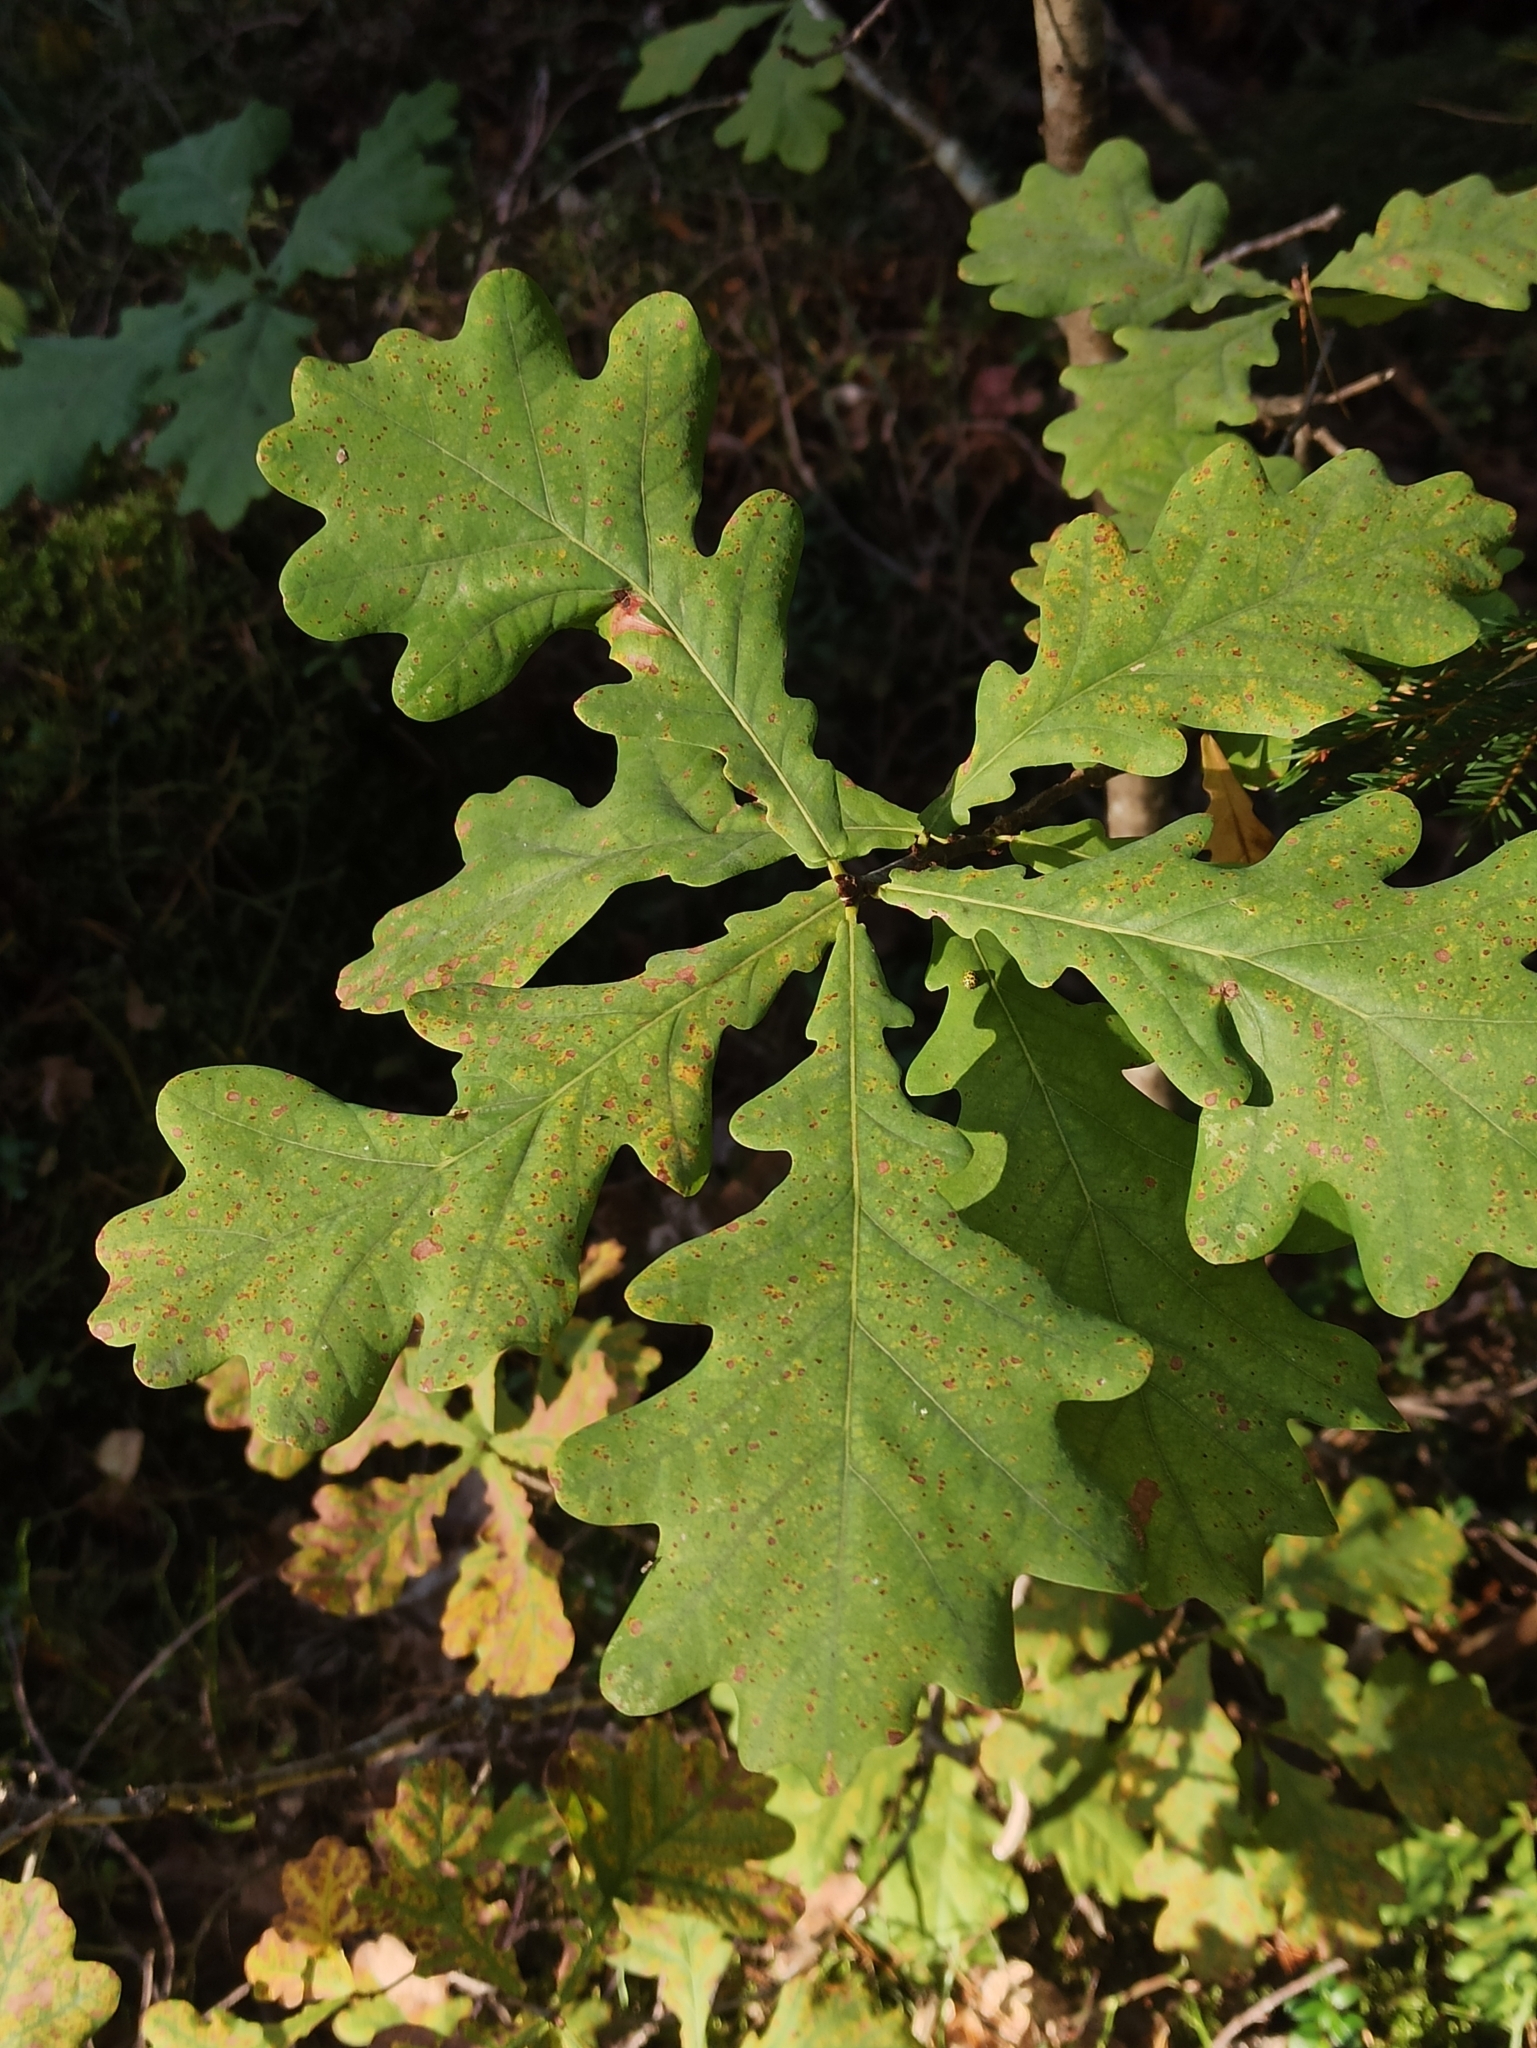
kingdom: Plantae
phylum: Tracheophyta
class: Magnoliopsida
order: Fagales
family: Fagaceae
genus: Quercus
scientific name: Quercus robur
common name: Pedunculate oak
